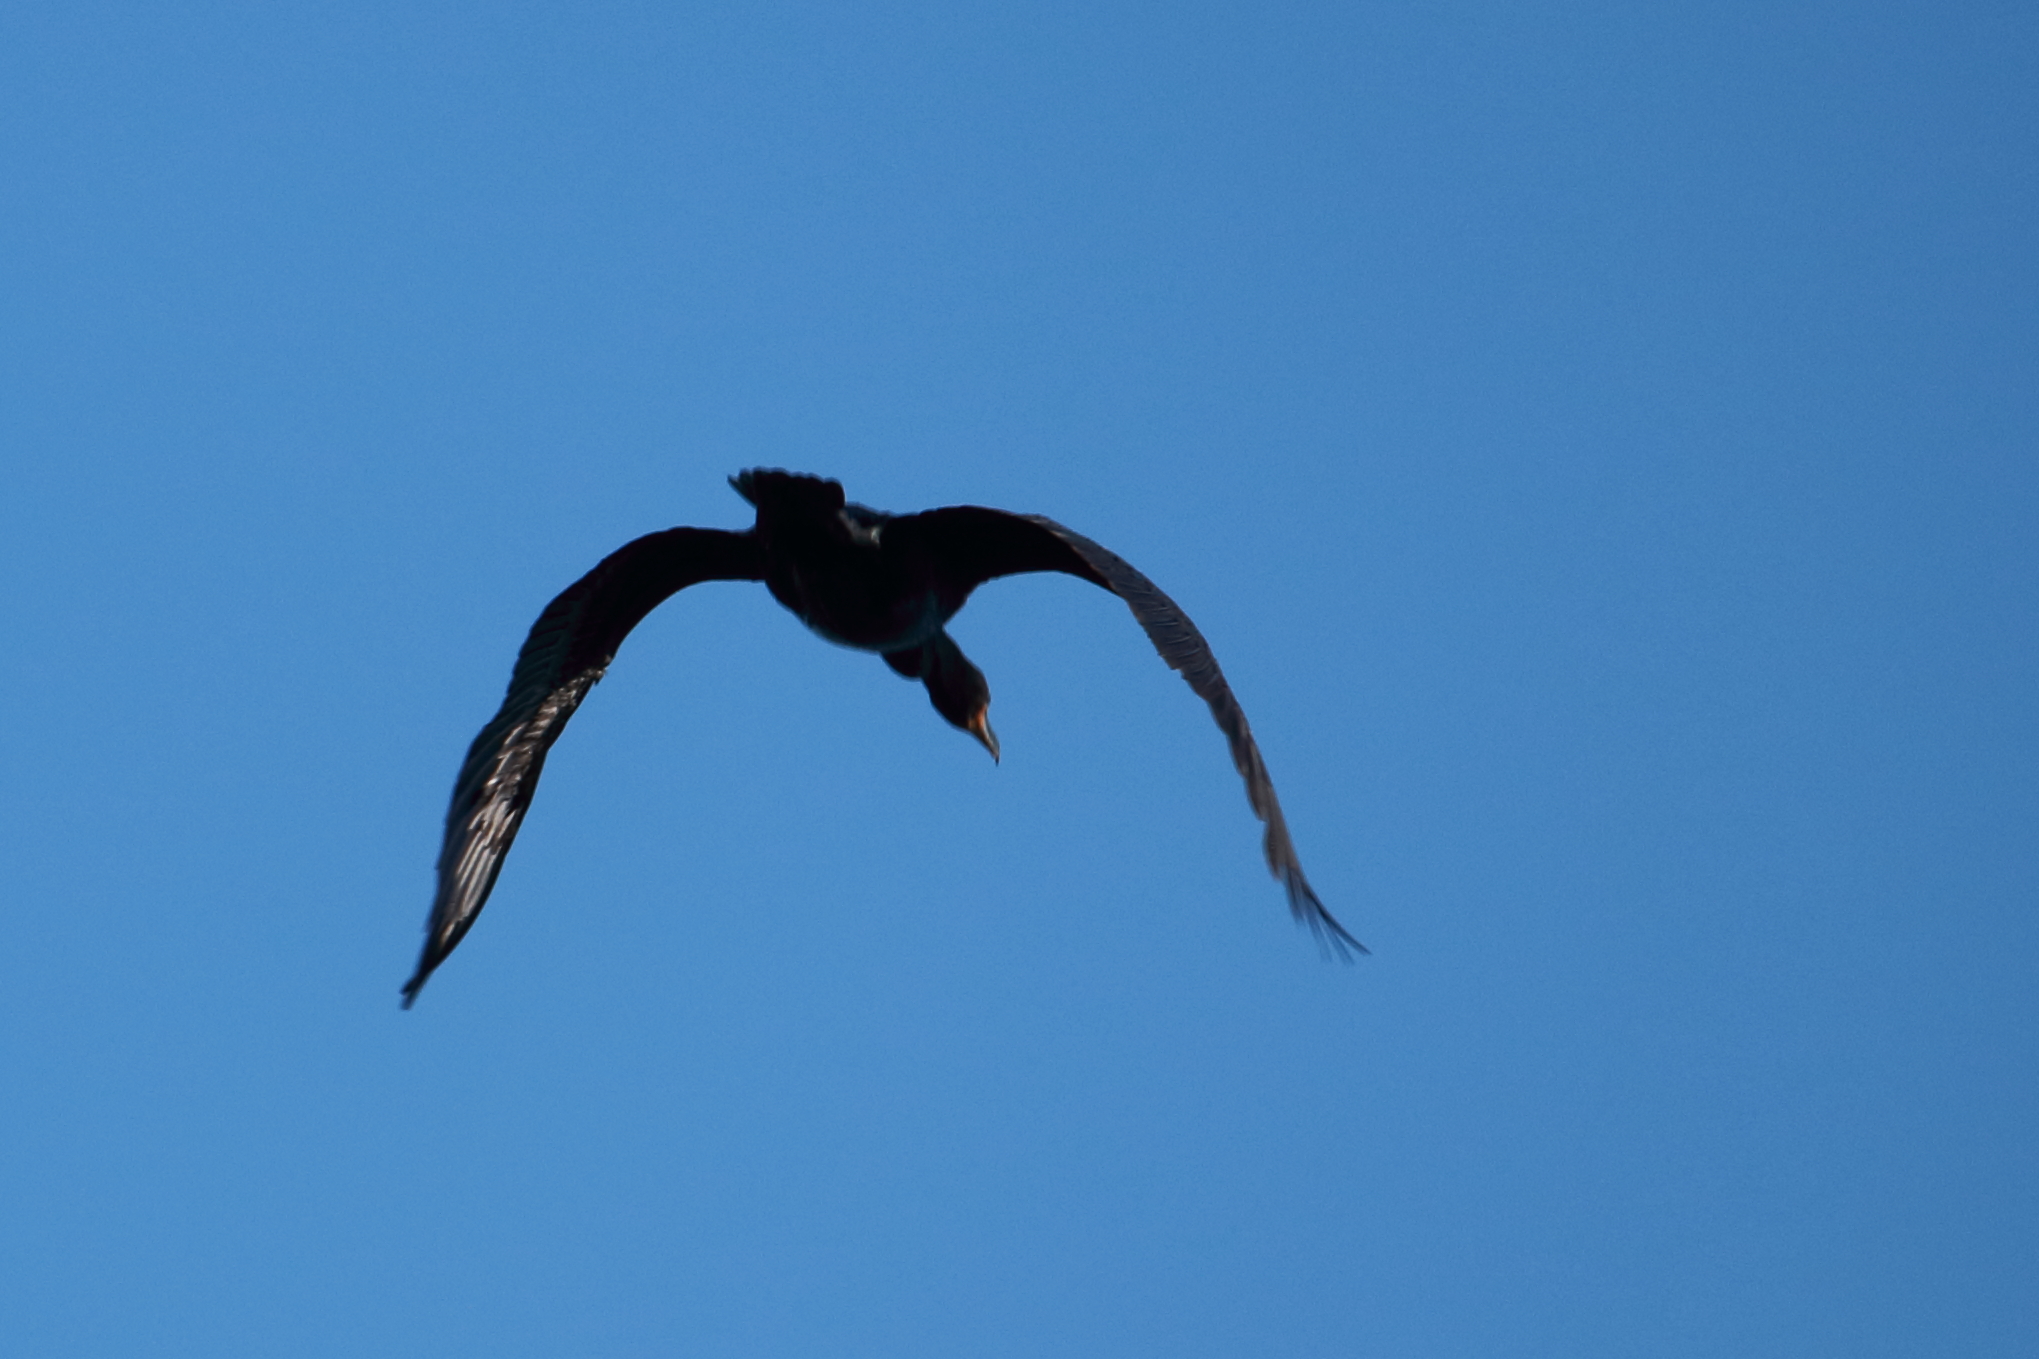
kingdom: Animalia
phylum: Chordata
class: Aves
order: Suliformes
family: Phalacrocoracidae
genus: Phalacrocorax
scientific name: Phalacrocorax auritus
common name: Double-crested cormorant
